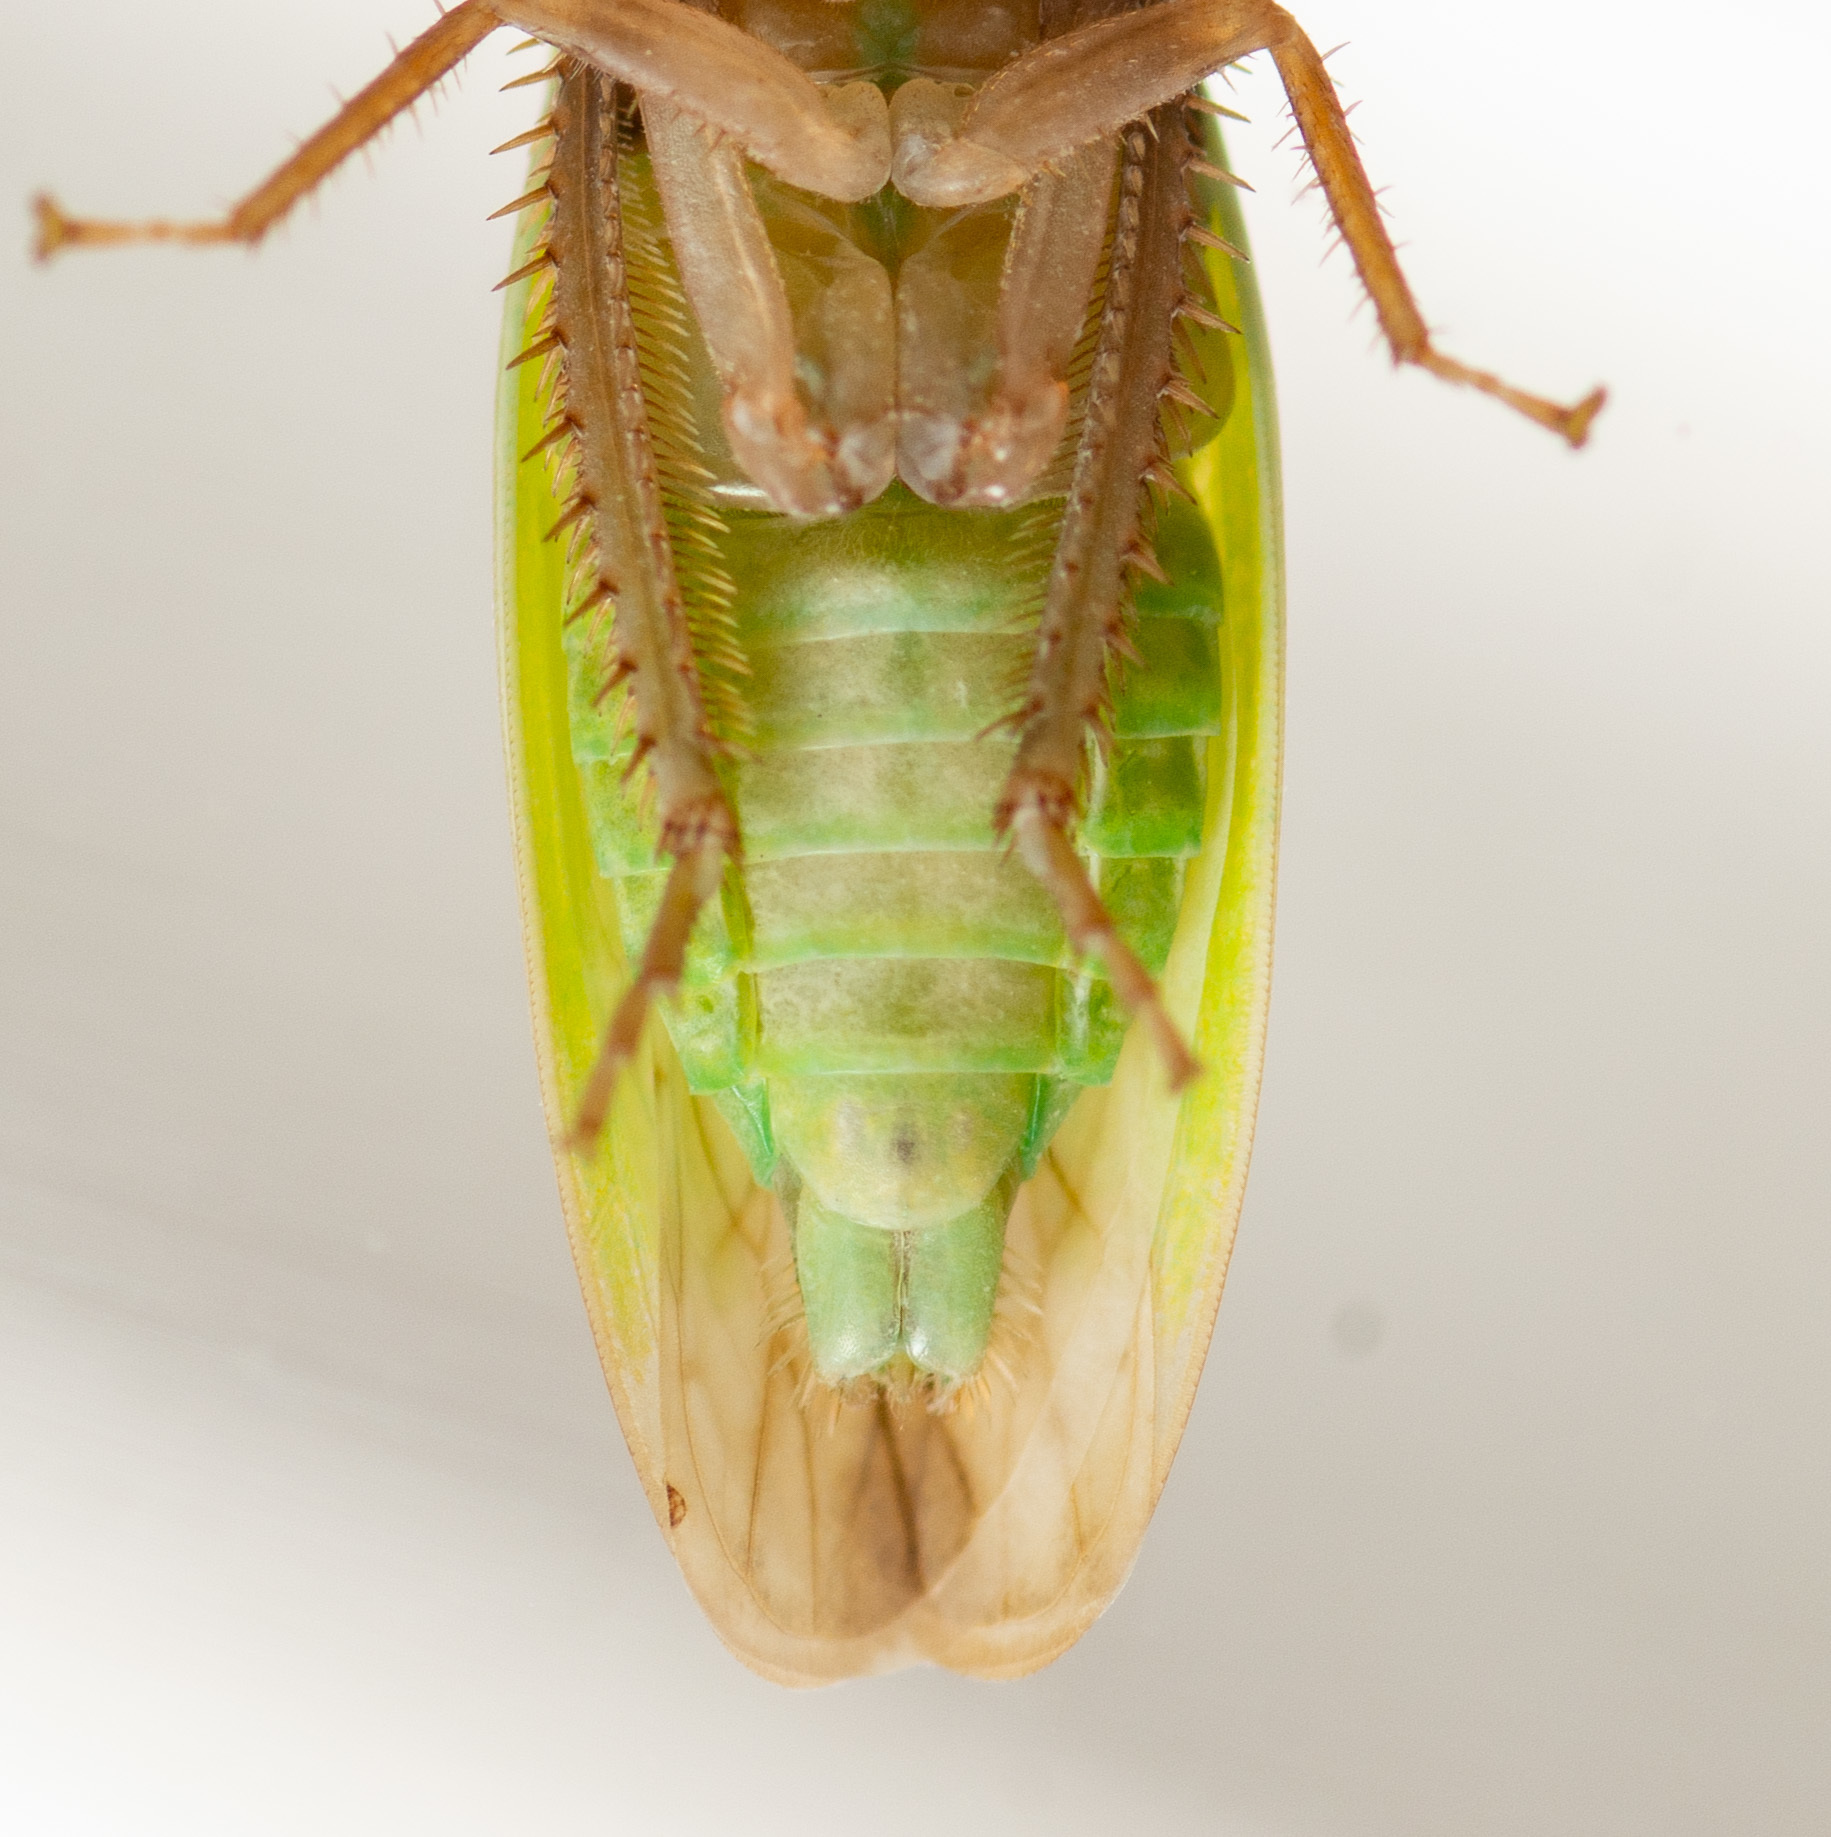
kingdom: Animalia
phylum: Arthropoda
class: Insecta
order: Hemiptera
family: Cicadellidae
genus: Ponana
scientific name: Ponana
